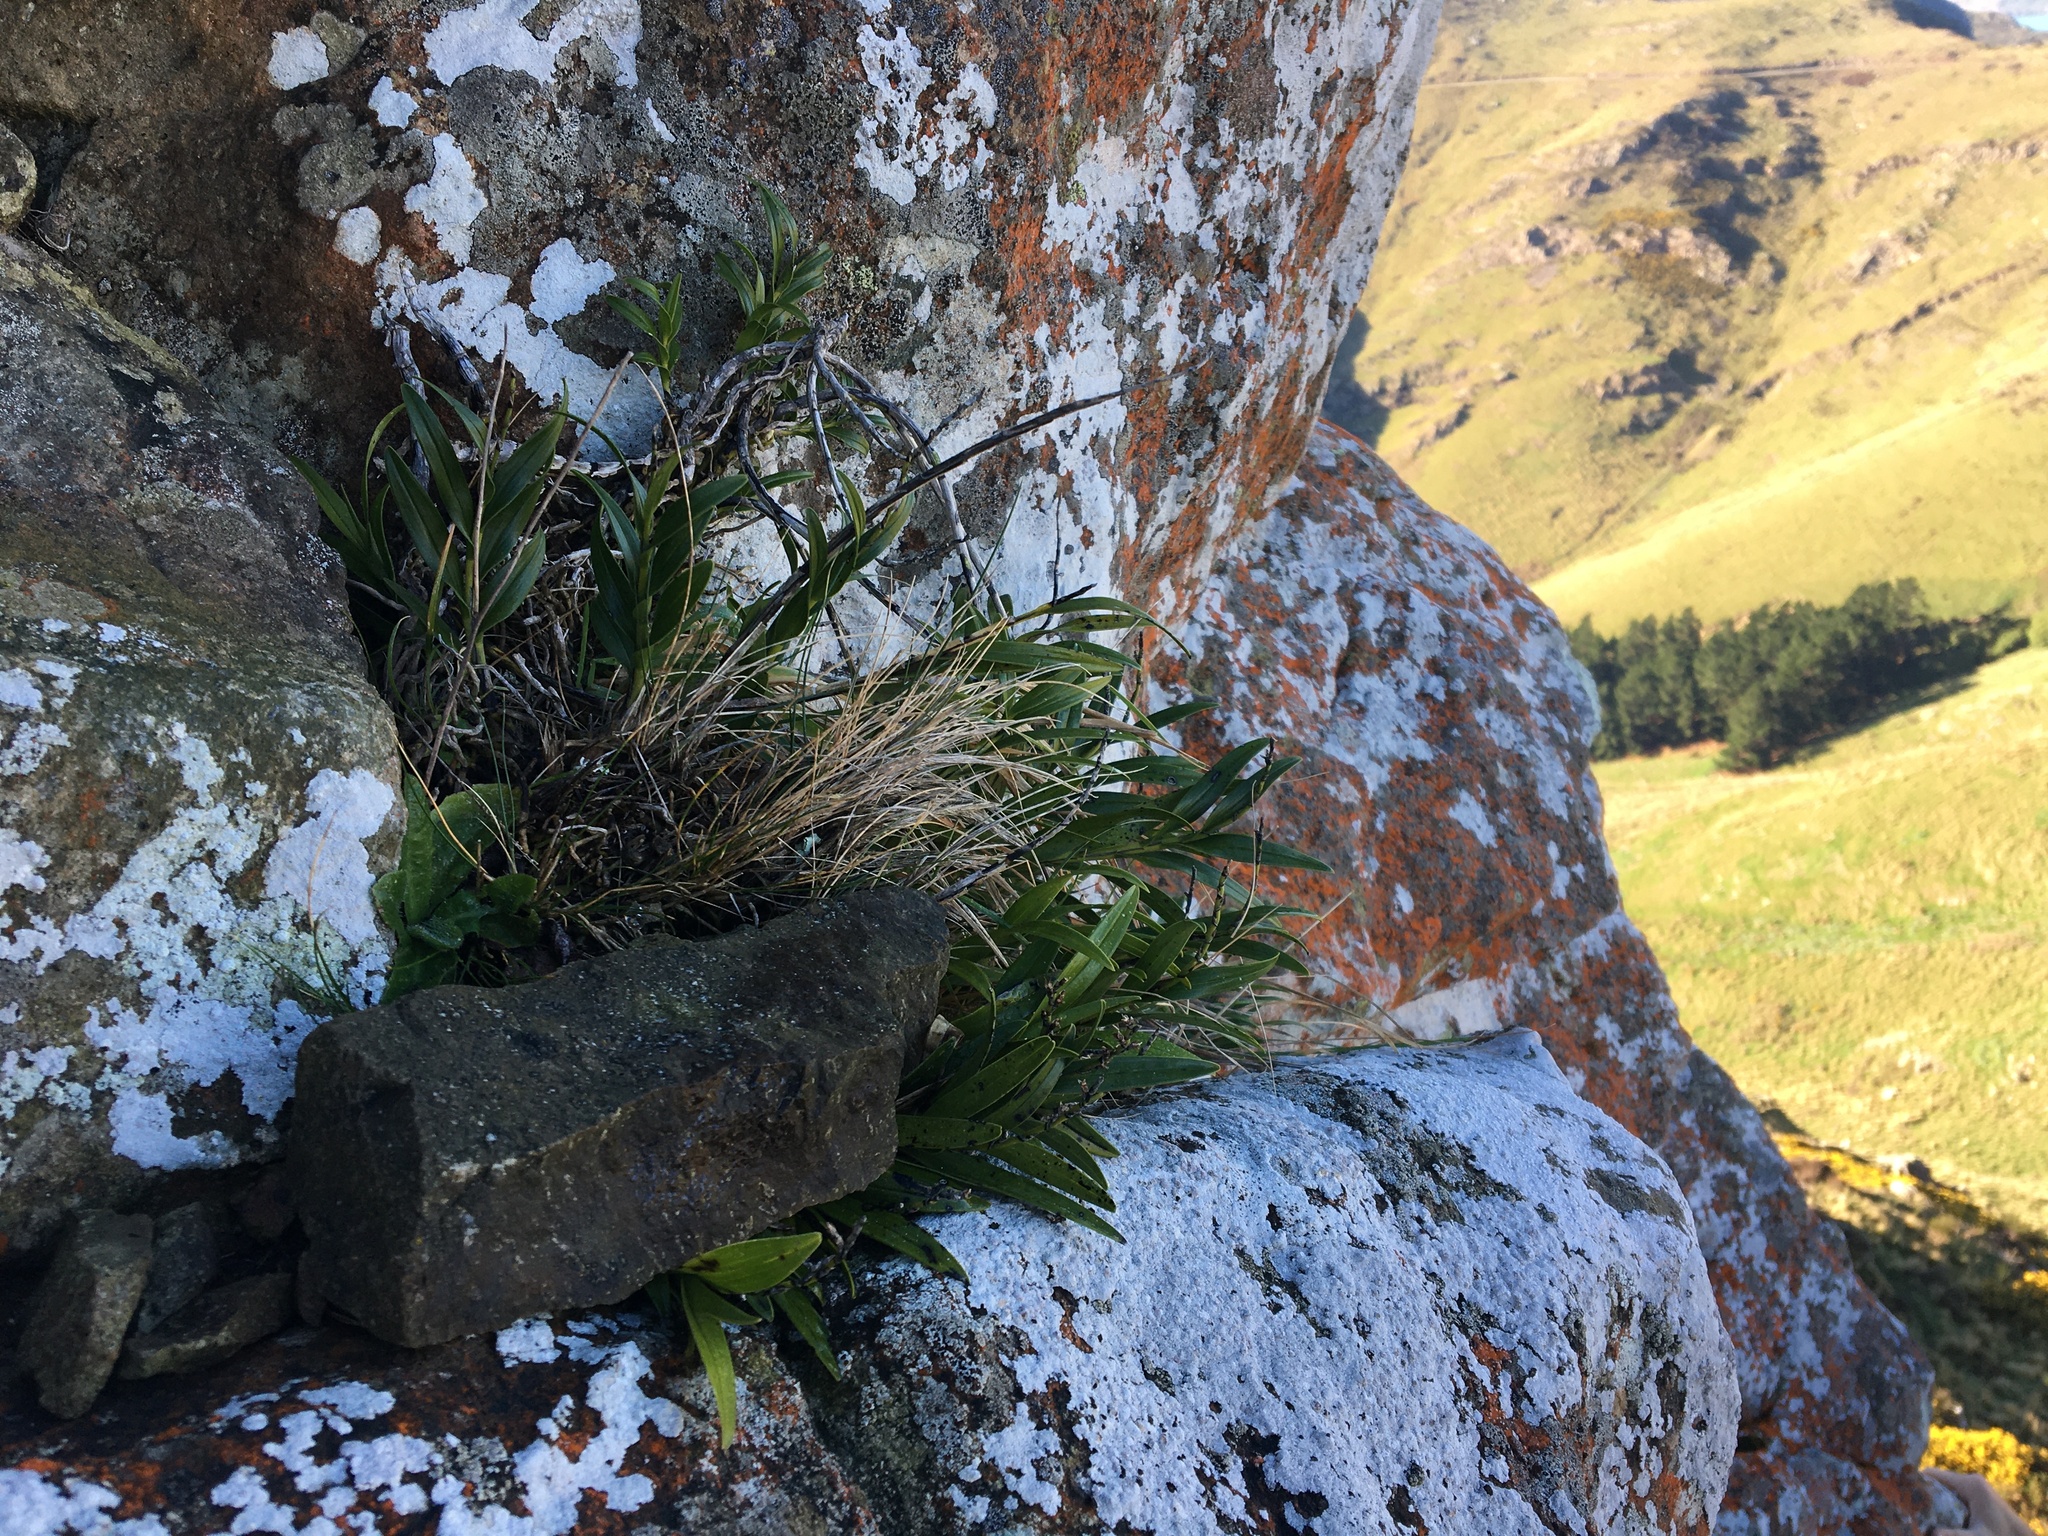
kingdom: Plantae
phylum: Tracheophyta
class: Liliopsida
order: Asparagales
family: Orchidaceae
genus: Earina
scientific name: Earina autumnalis
